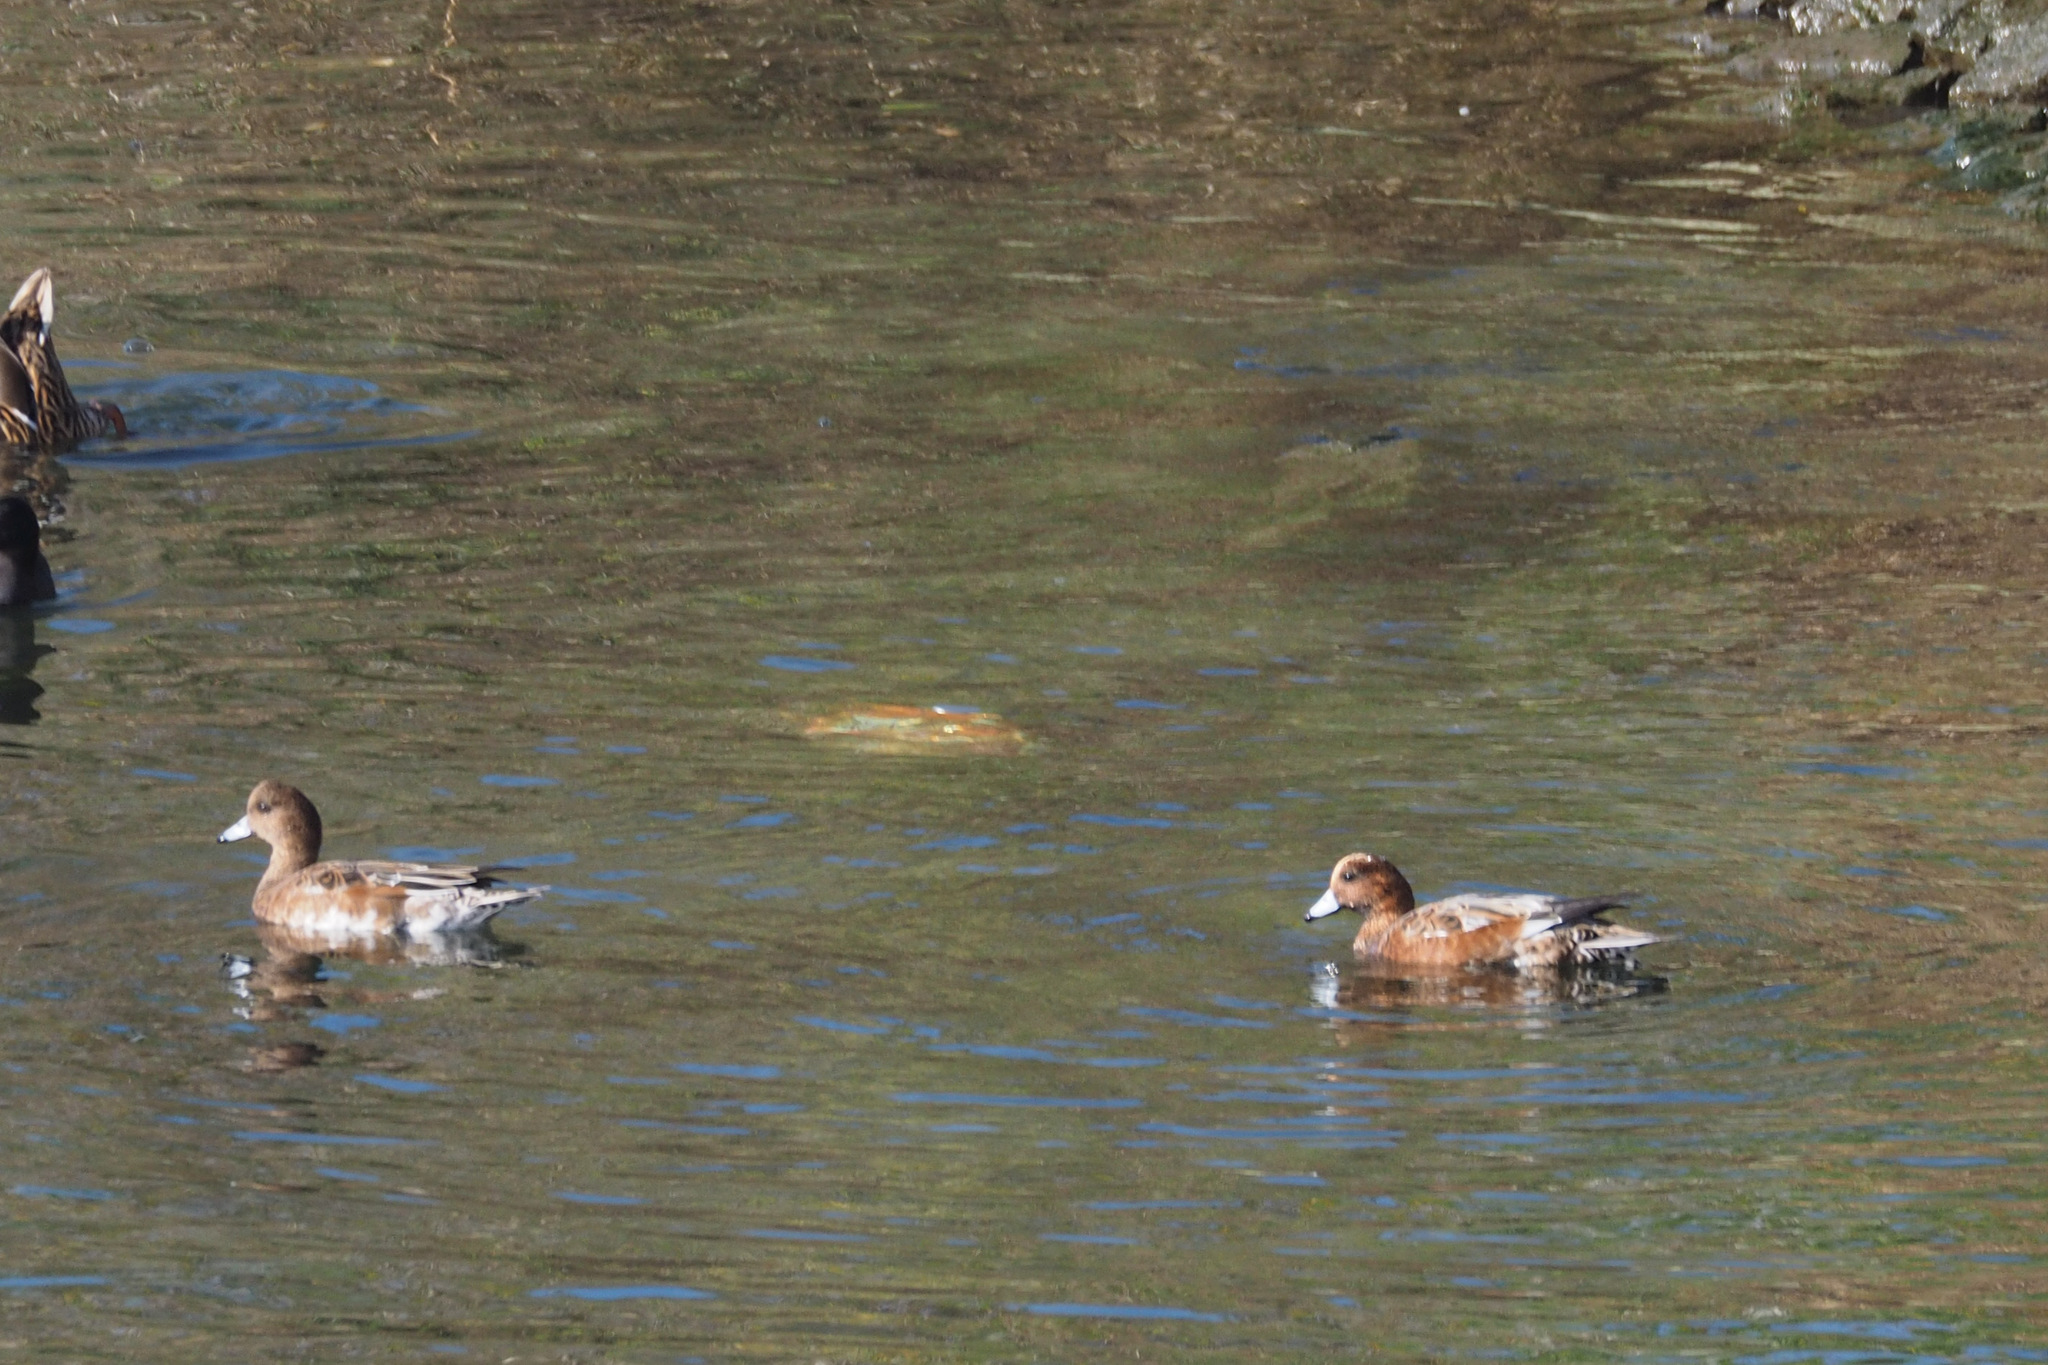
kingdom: Animalia
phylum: Chordata
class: Aves
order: Anseriformes
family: Anatidae
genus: Mareca
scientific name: Mareca penelope
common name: Eurasian wigeon
